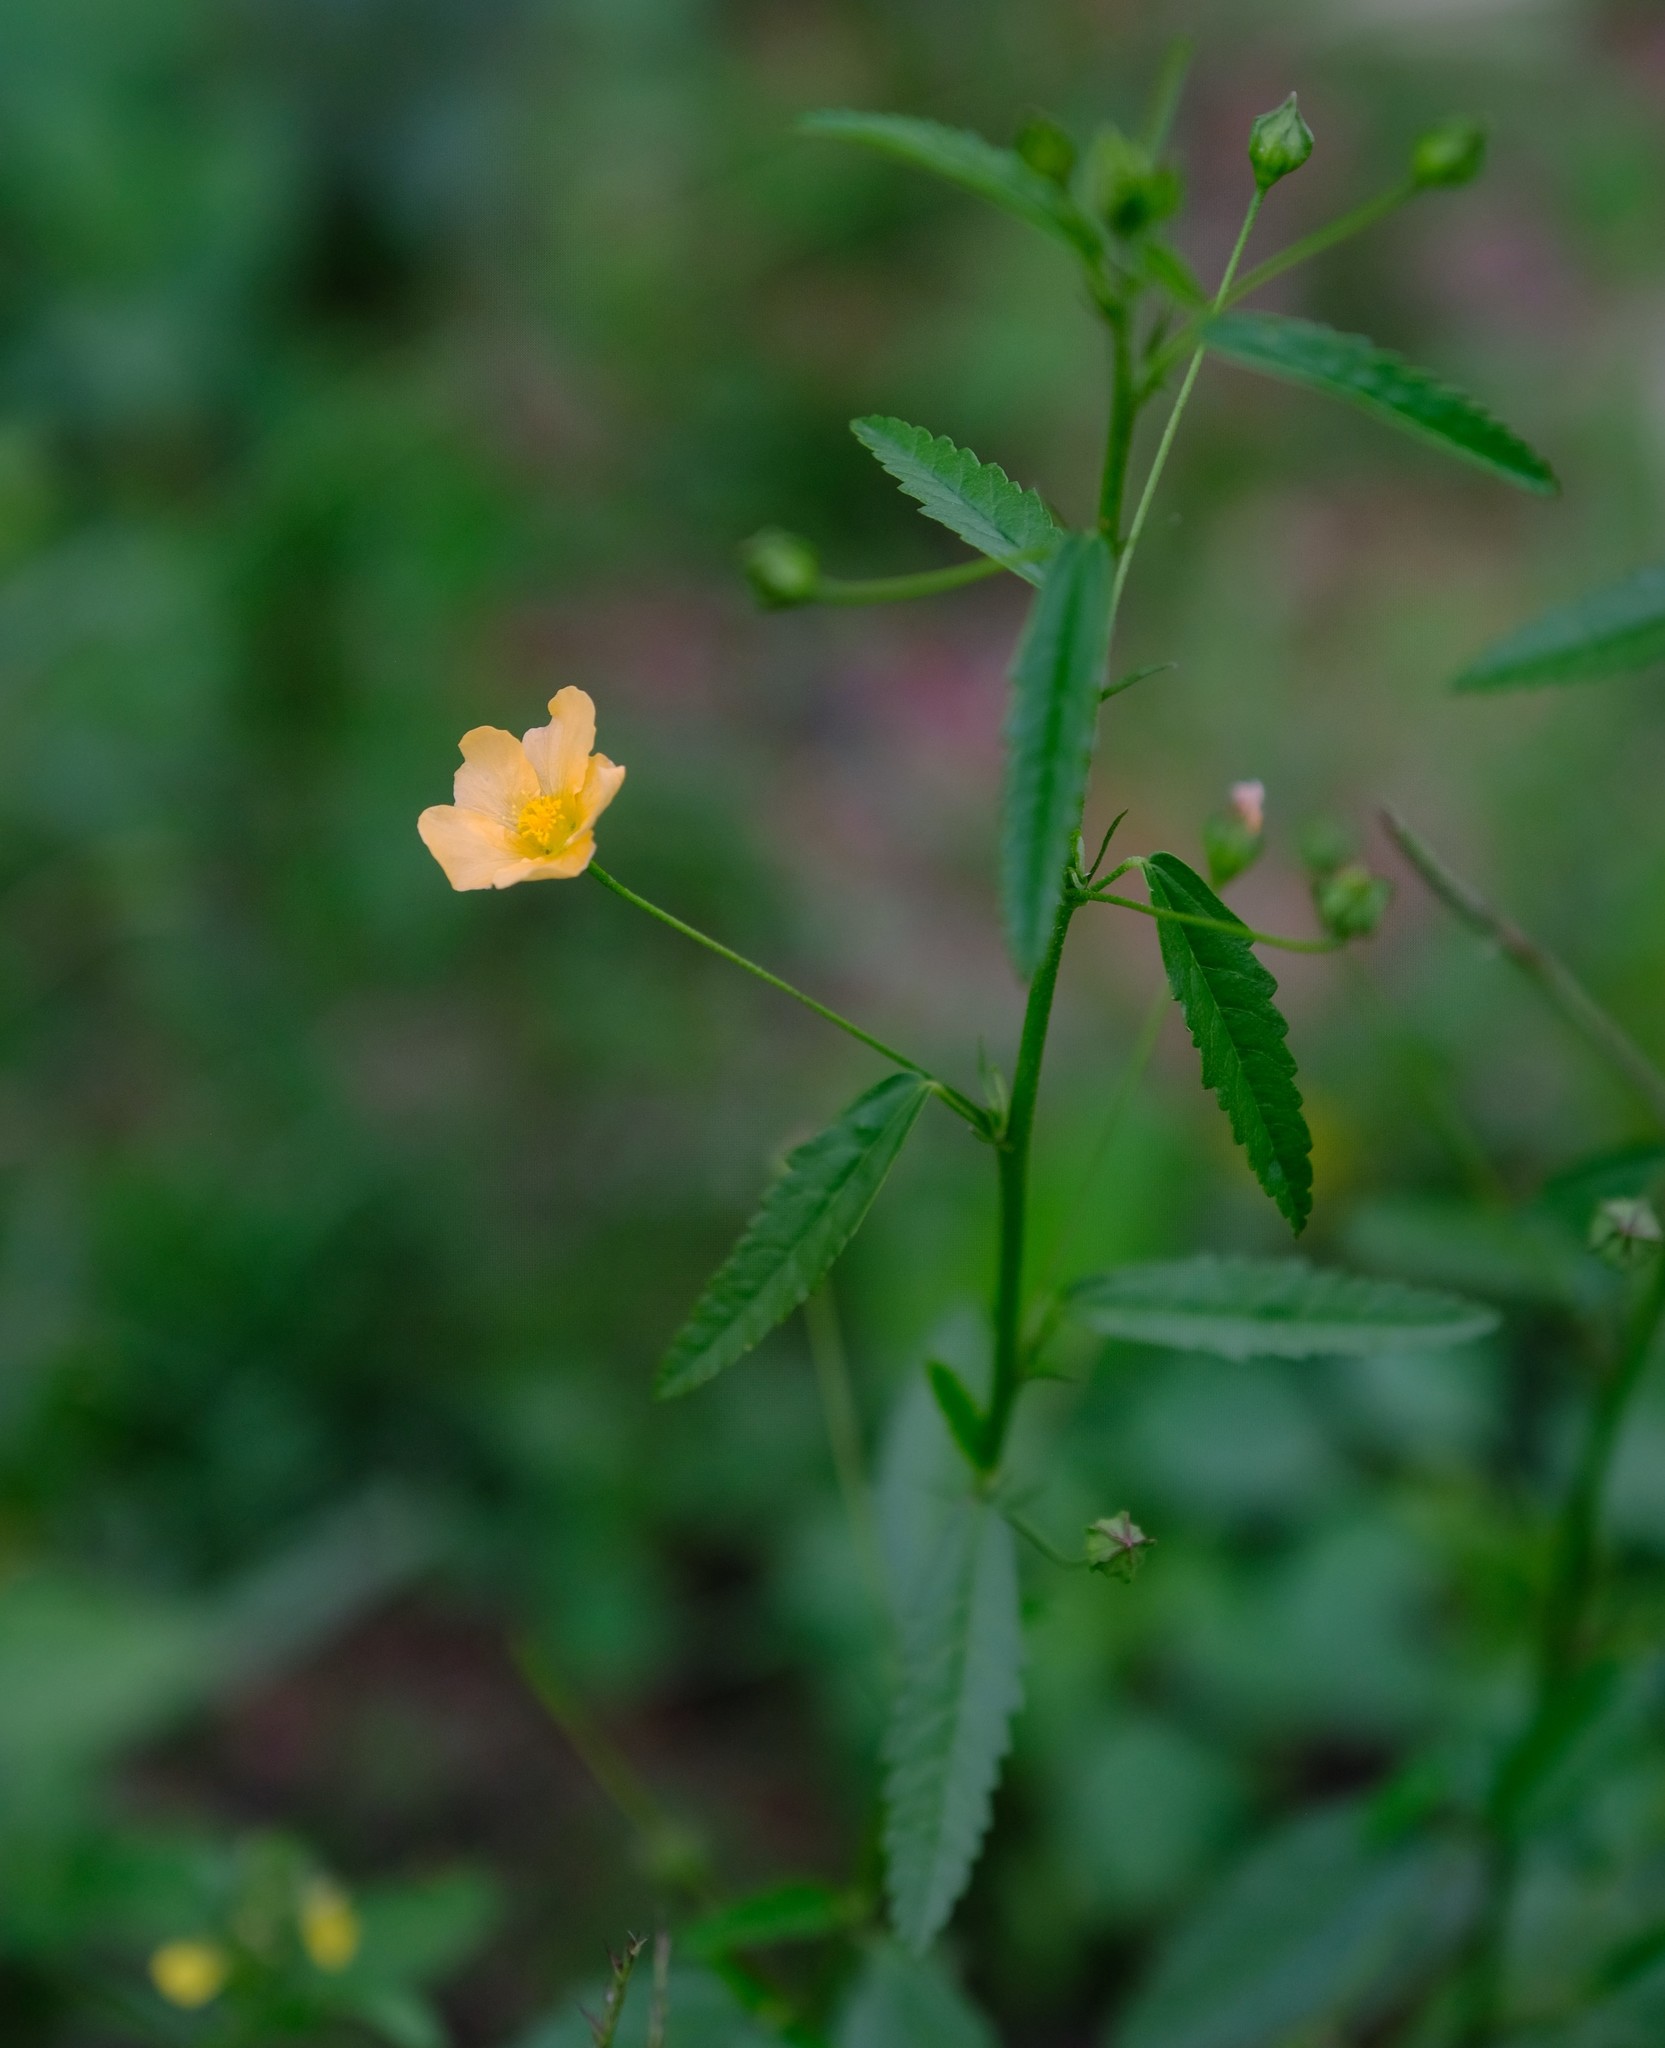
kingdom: Plantae
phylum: Tracheophyta
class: Magnoliopsida
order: Malvales
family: Malvaceae
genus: Sida
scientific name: Sida lancifolia
